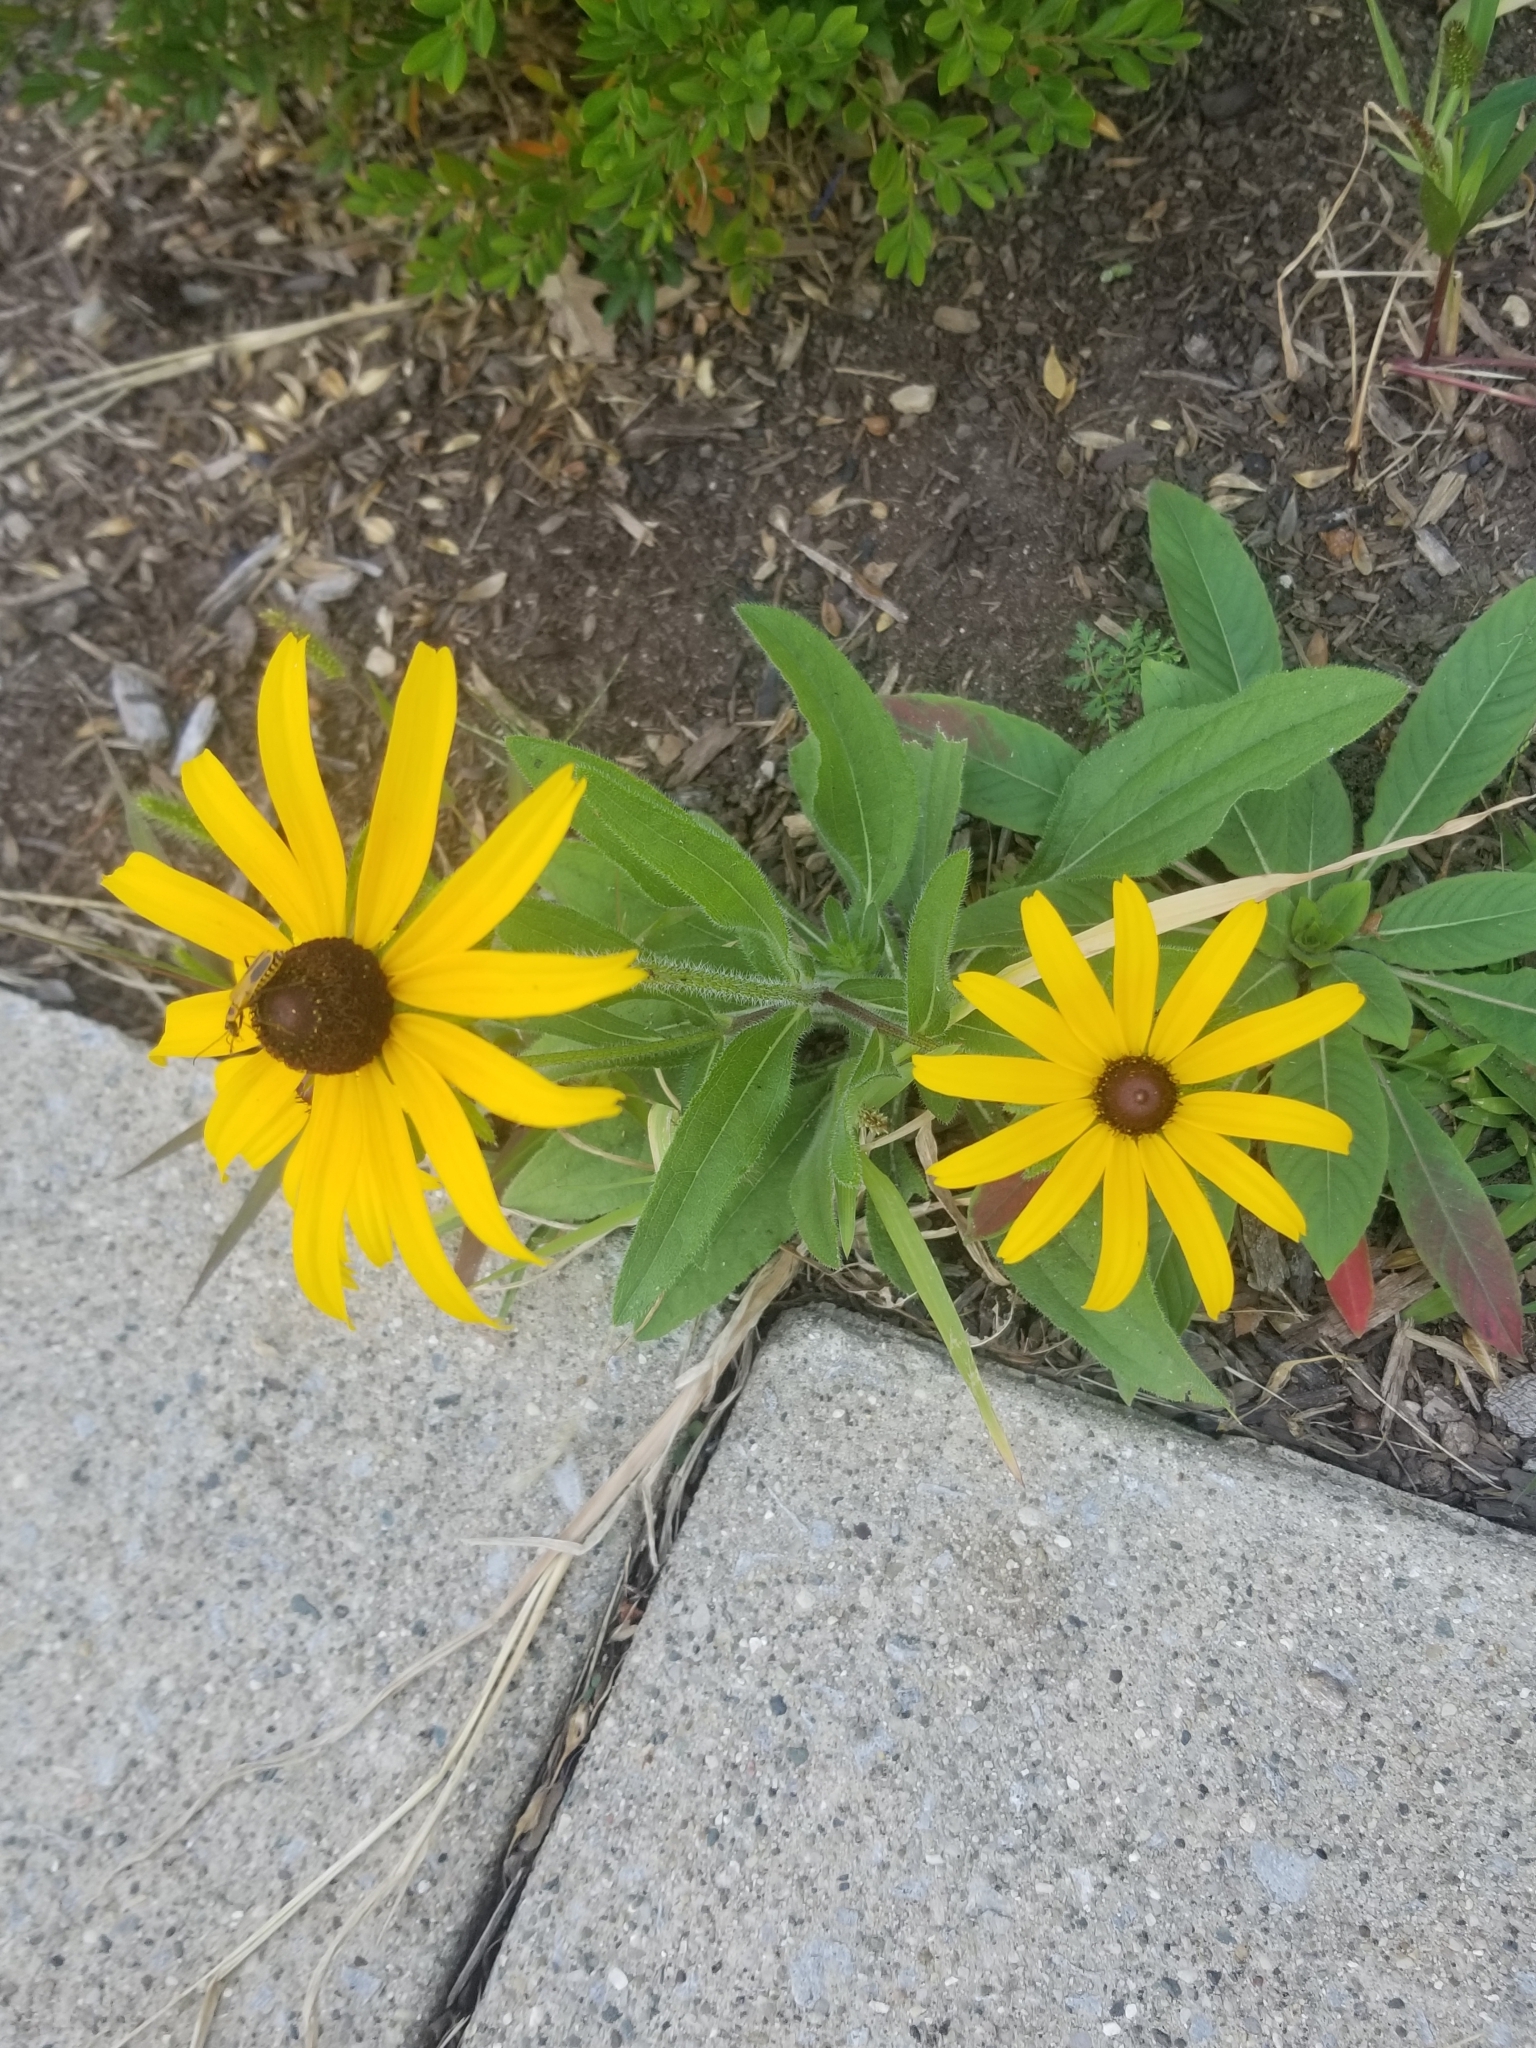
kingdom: Plantae
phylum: Tracheophyta
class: Magnoliopsida
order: Asterales
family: Asteraceae
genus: Rudbeckia
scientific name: Rudbeckia hirta
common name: Black-eyed-susan
